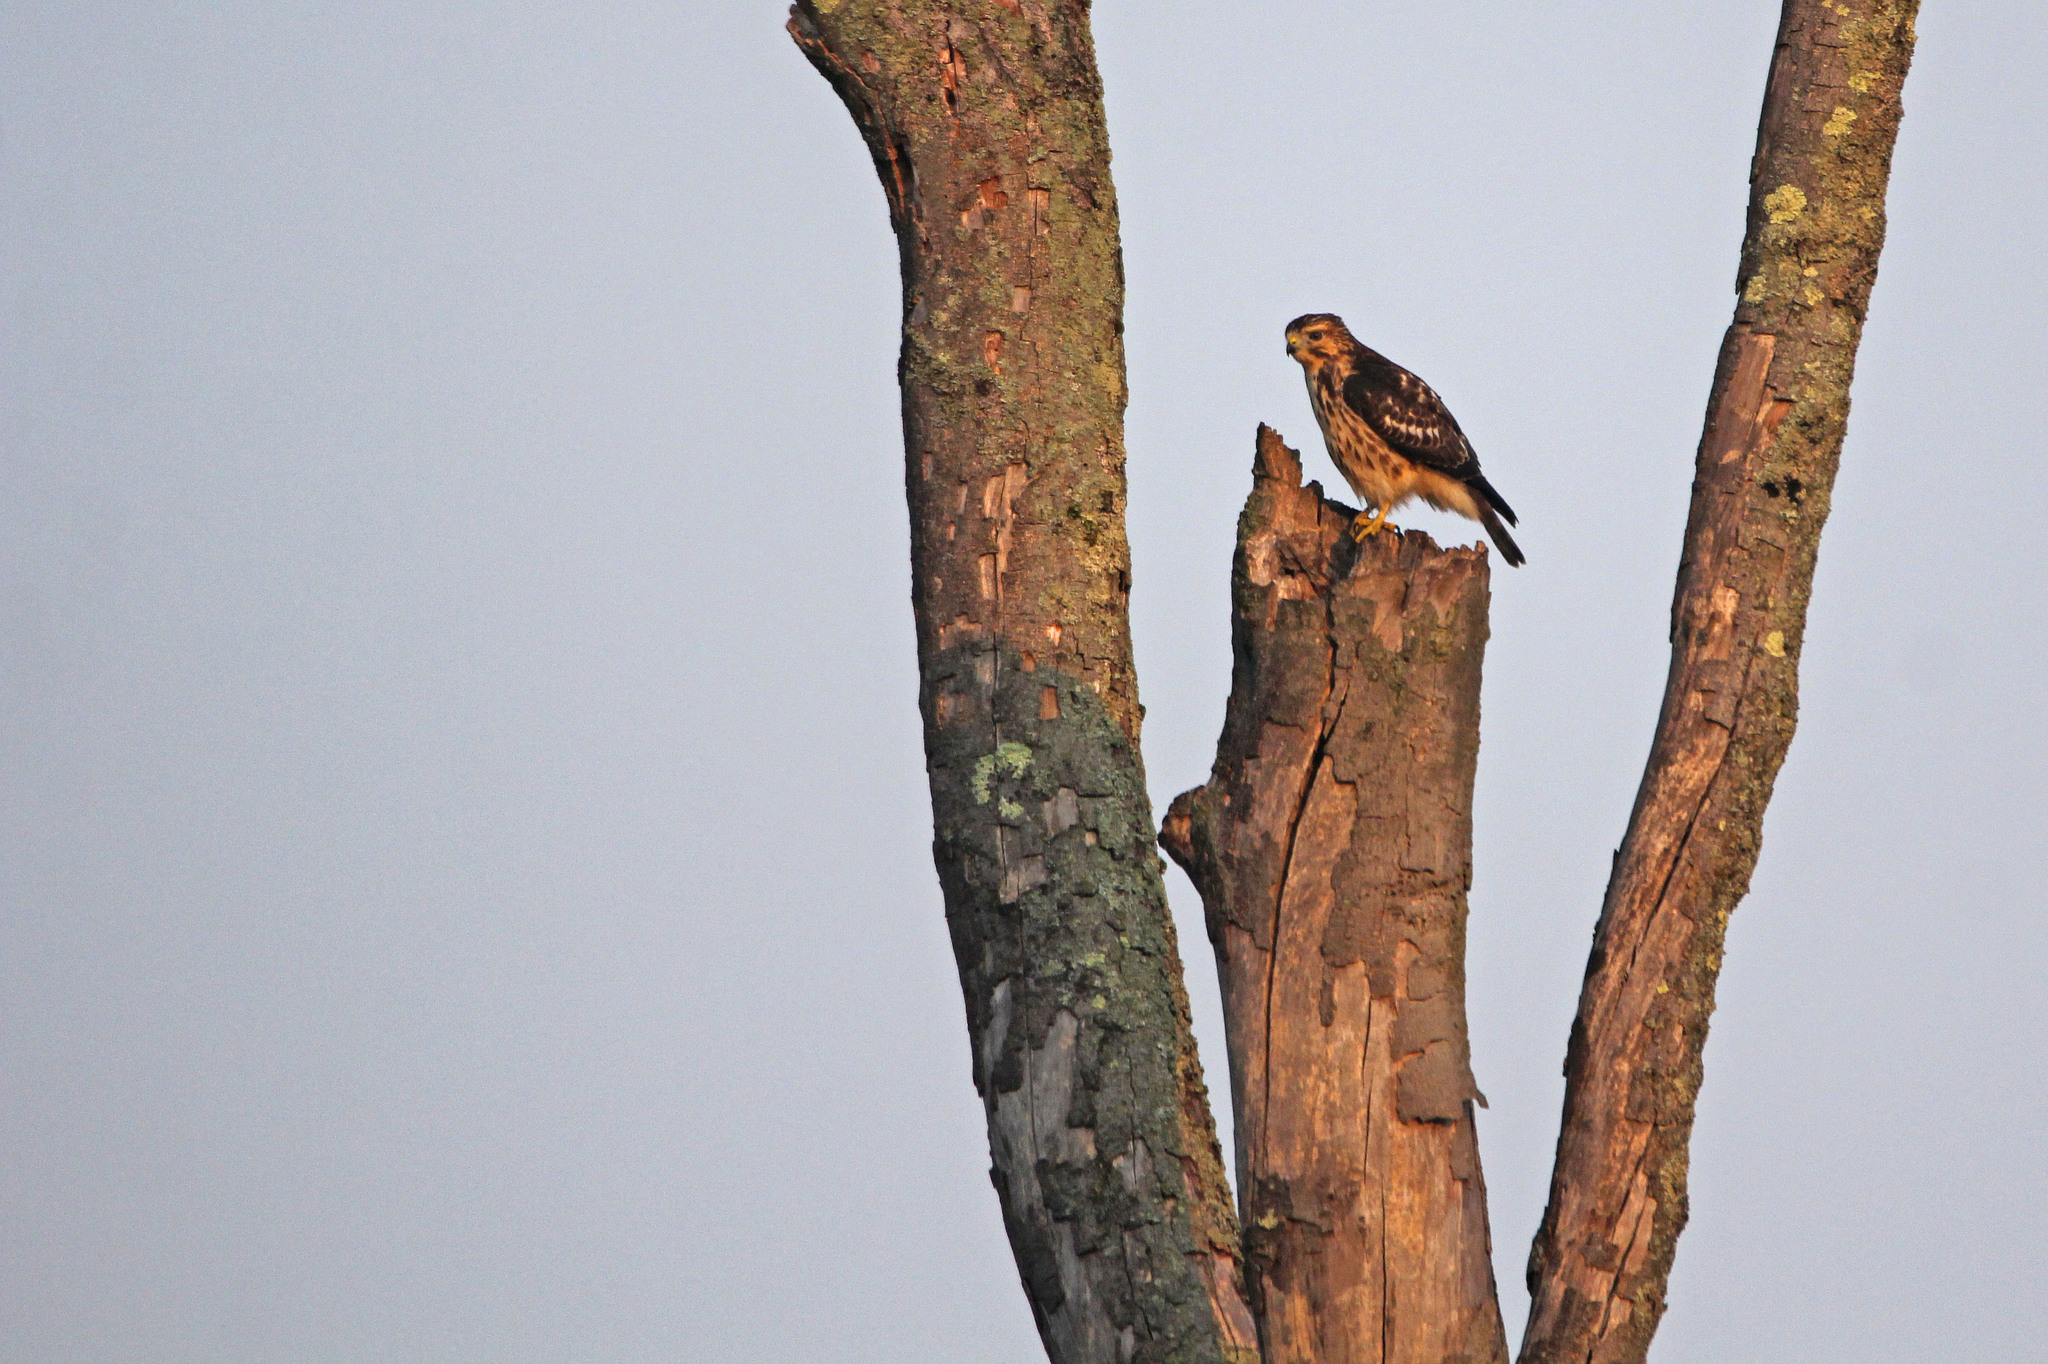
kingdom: Animalia
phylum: Chordata
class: Aves
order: Accipitriformes
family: Accipitridae
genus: Buteo
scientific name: Buteo platypterus
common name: Broad-winged hawk
